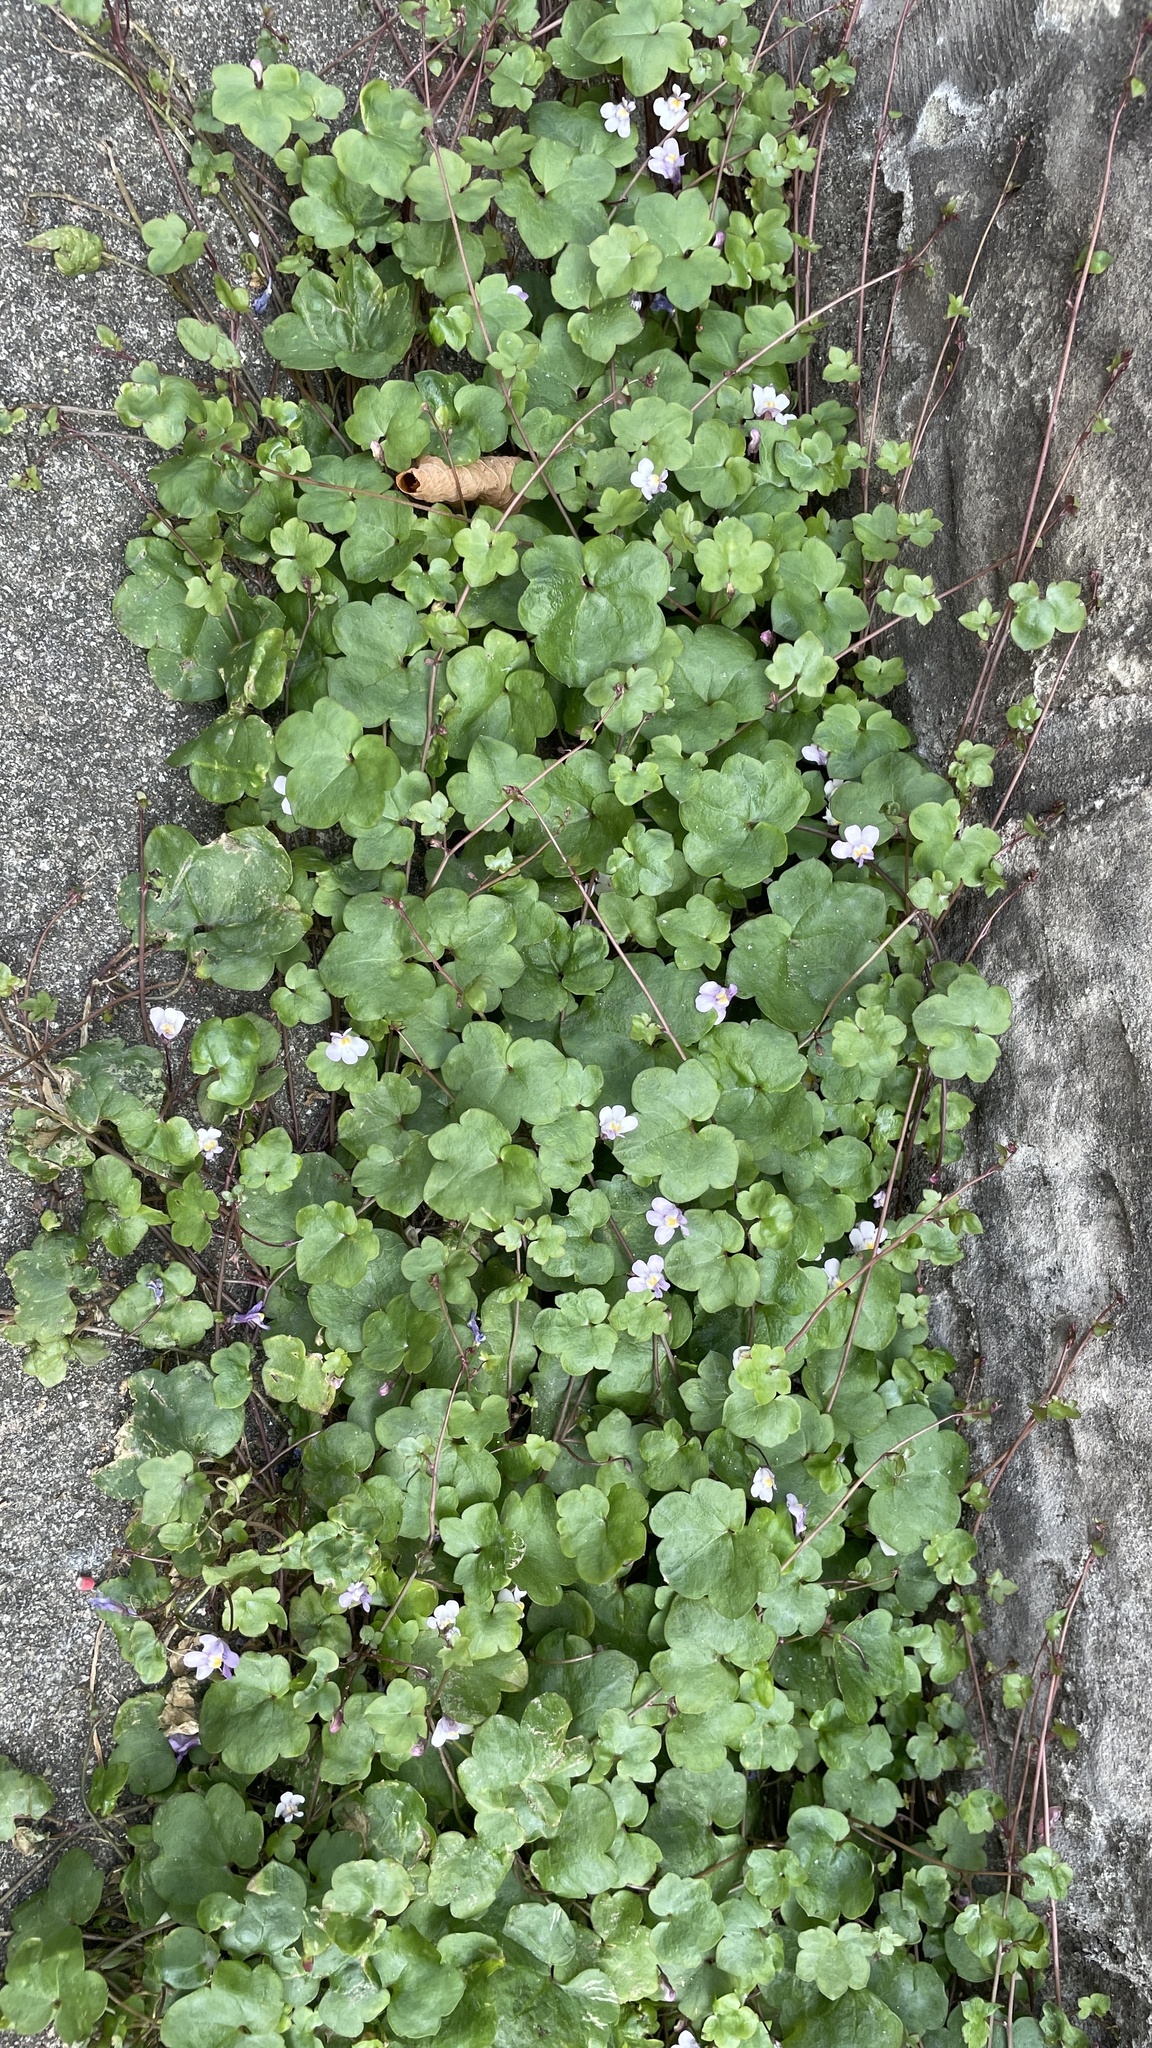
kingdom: Plantae
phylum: Tracheophyta
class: Magnoliopsida
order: Lamiales
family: Plantaginaceae
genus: Cymbalaria
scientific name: Cymbalaria muralis
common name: Ivy-leaved toadflax
